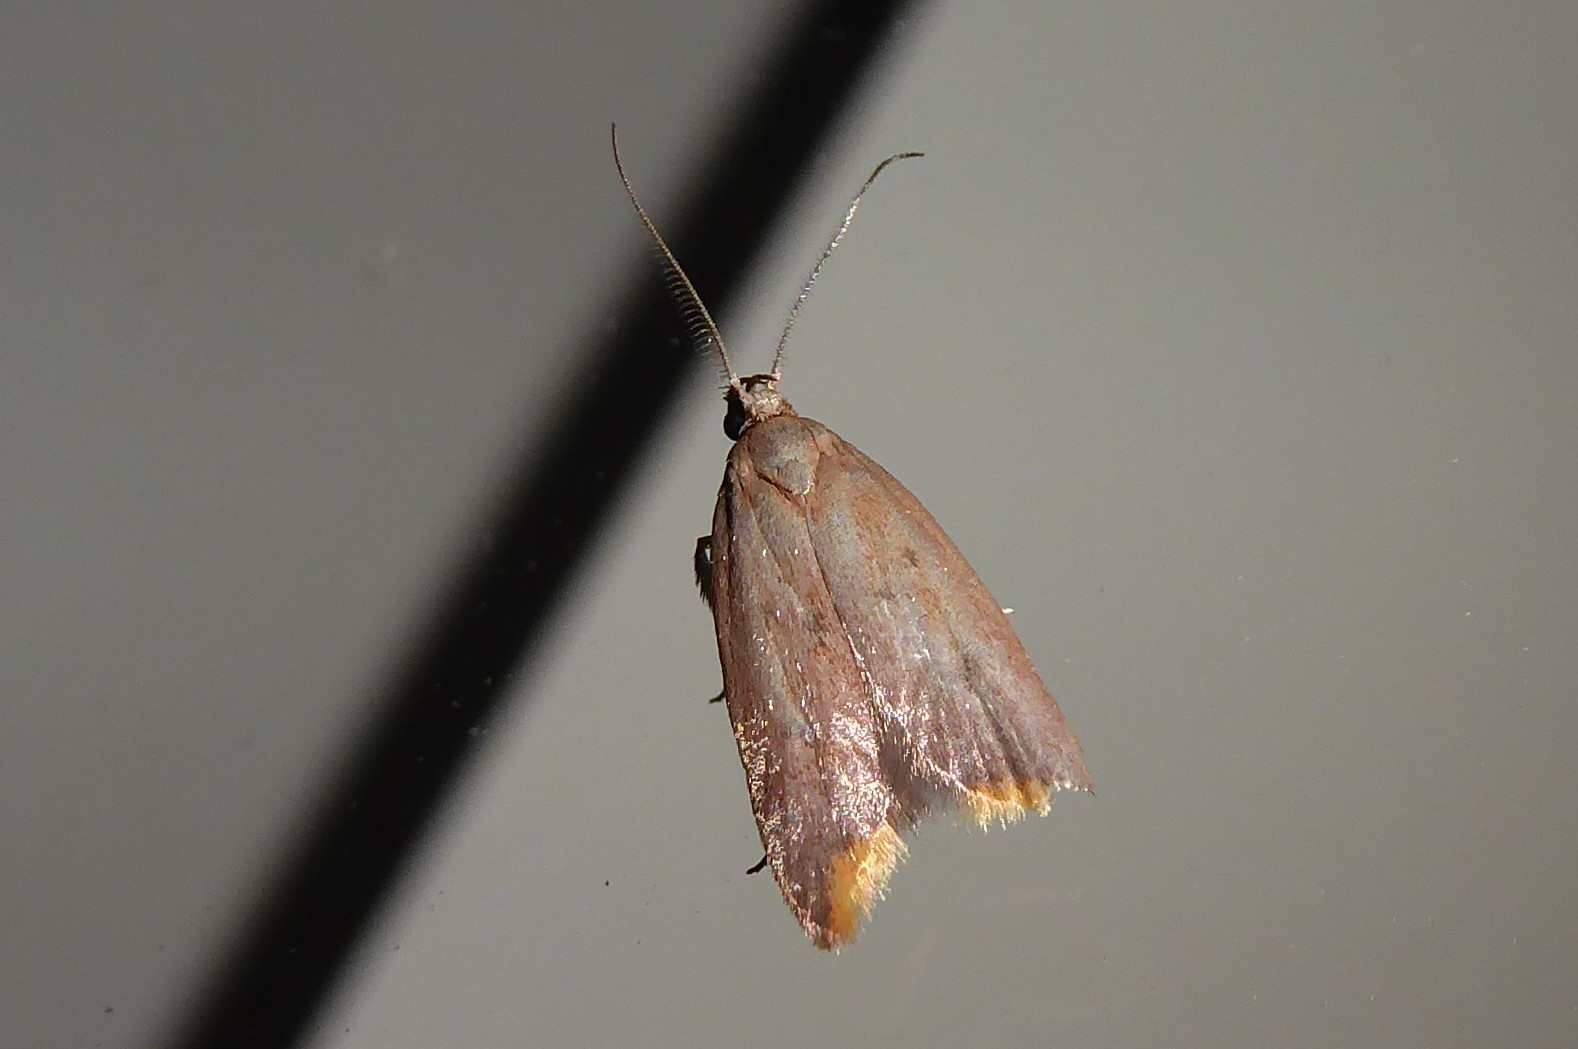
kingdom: Animalia
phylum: Arthropoda
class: Insecta
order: Lepidoptera
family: Oecophoridae
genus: Tachystola
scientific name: Tachystola acroxantha
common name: Ruddy streak
